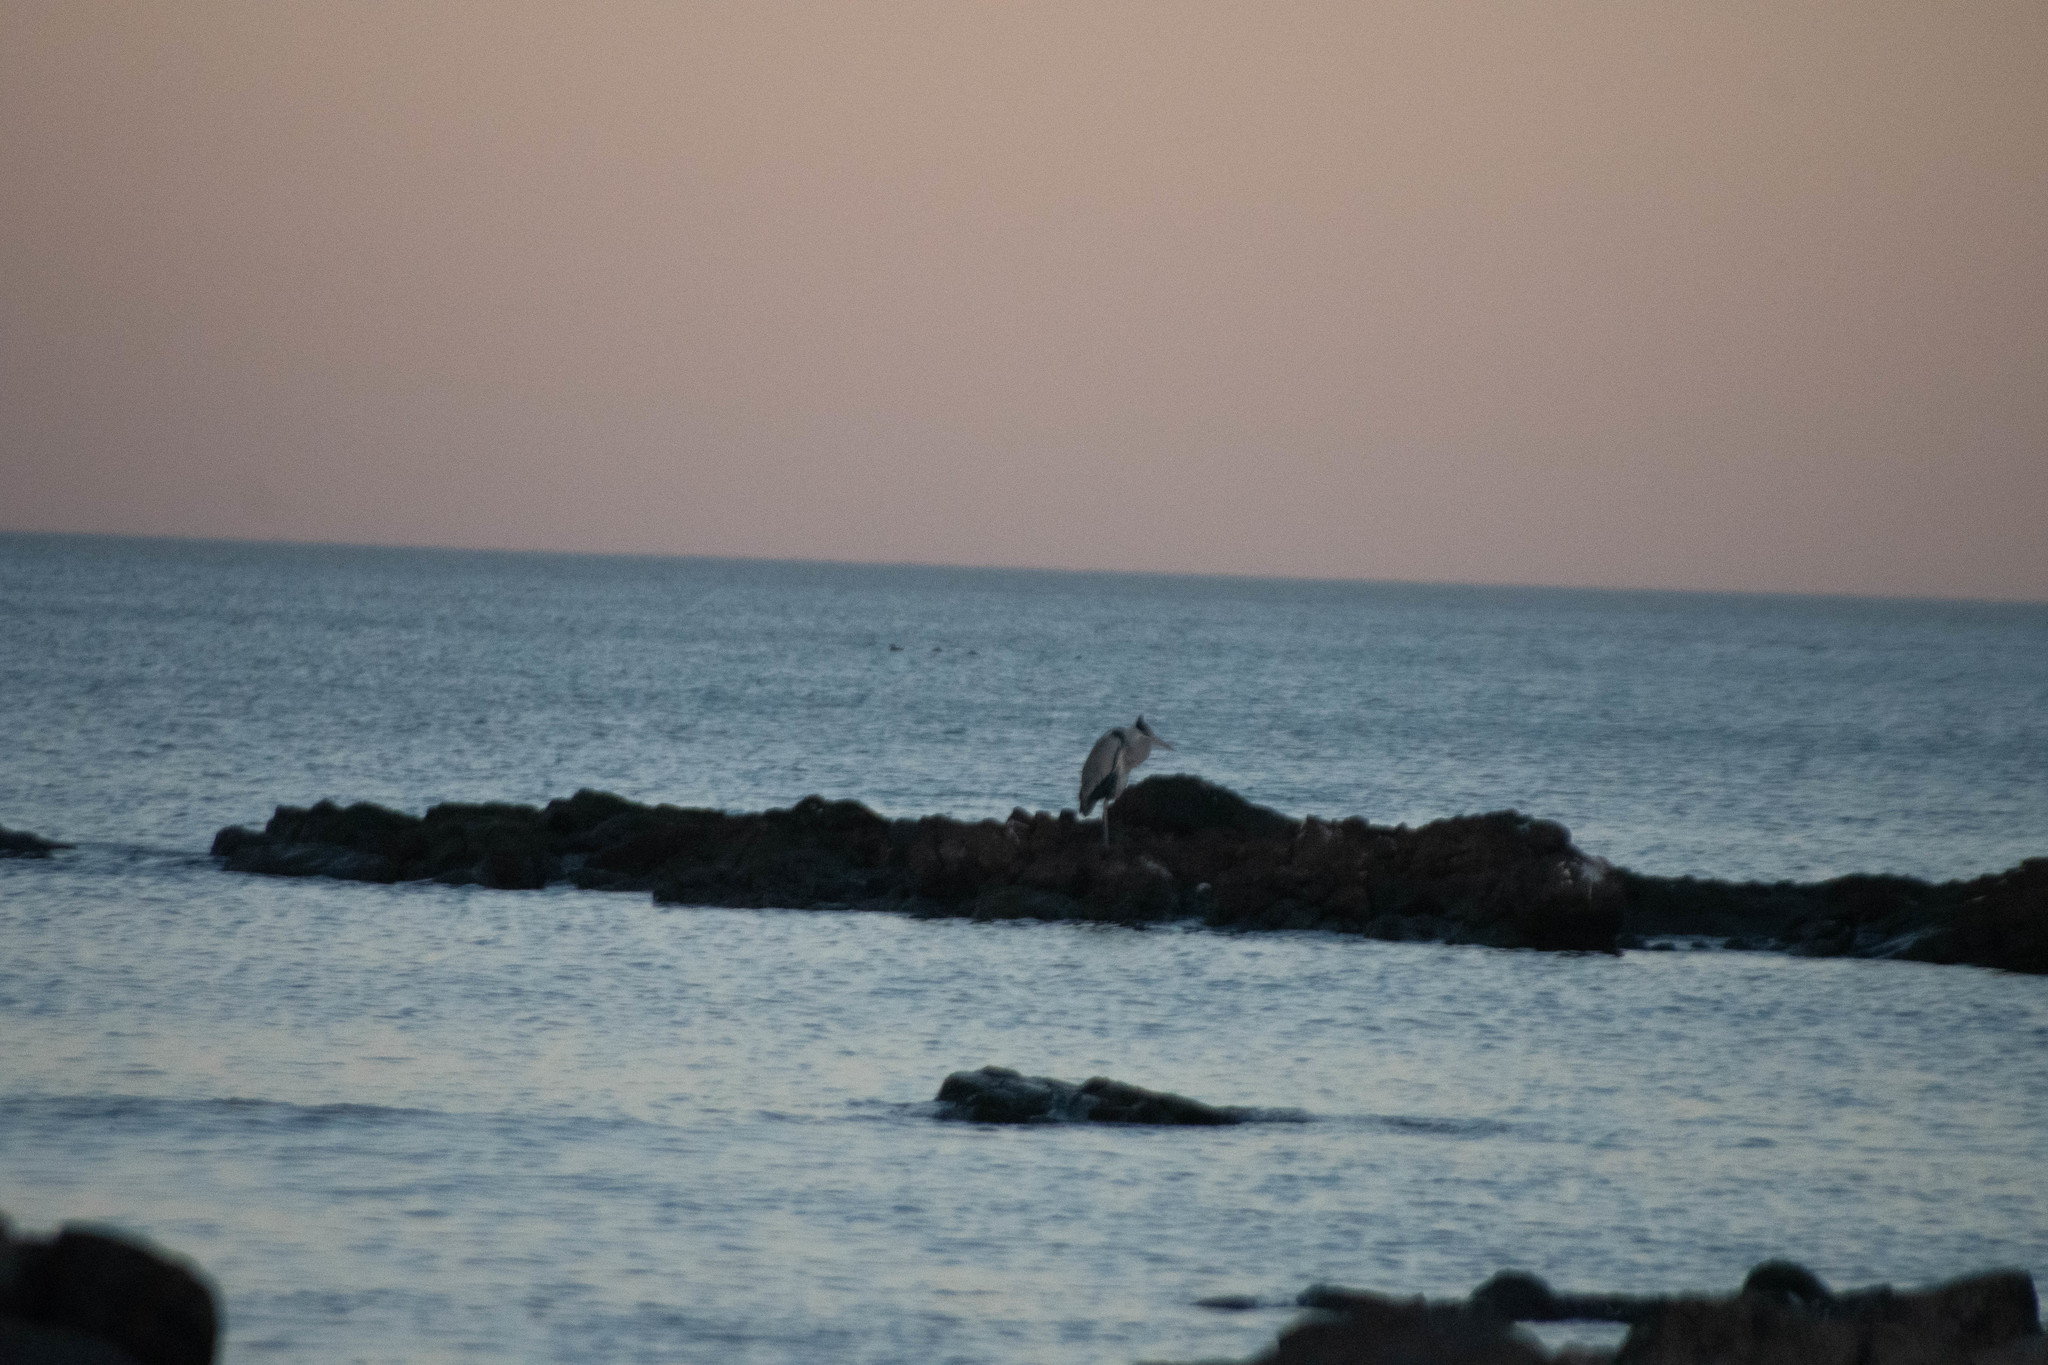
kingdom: Animalia
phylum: Chordata
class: Aves
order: Pelecaniformes
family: Ardeidae
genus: Ardea
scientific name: Ardea cocoi
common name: Cocoi heron
